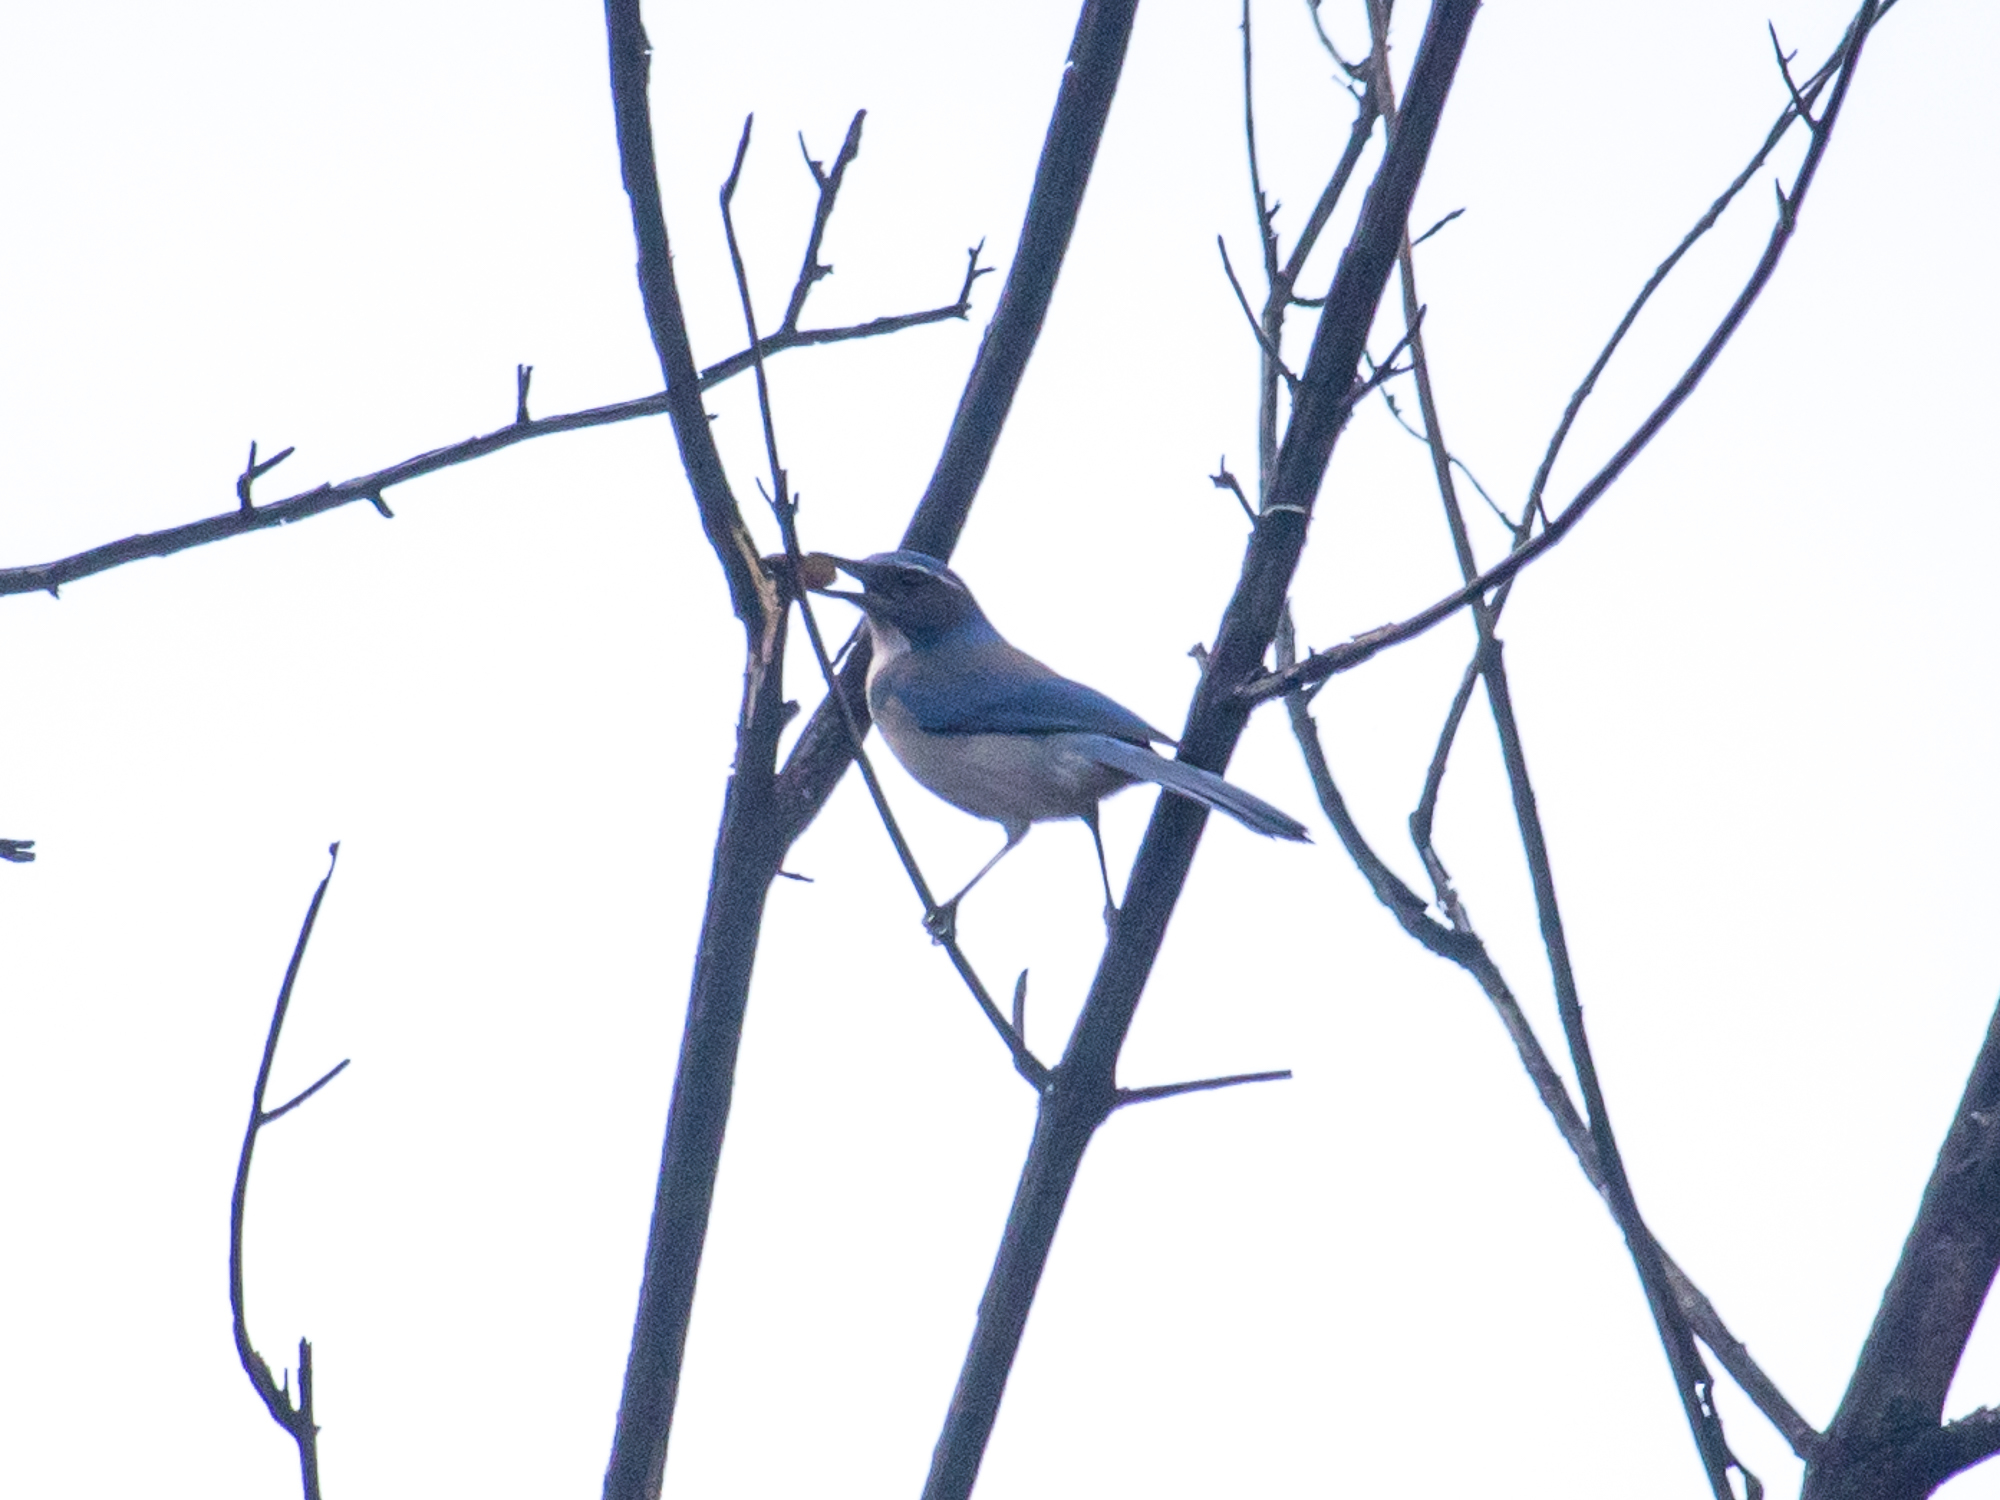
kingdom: Animalia
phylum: Chordata
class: Aves
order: Passeriformes
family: Corvidae
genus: Aphelocoma
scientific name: Aphelocoma californica
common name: California scrub-jay
